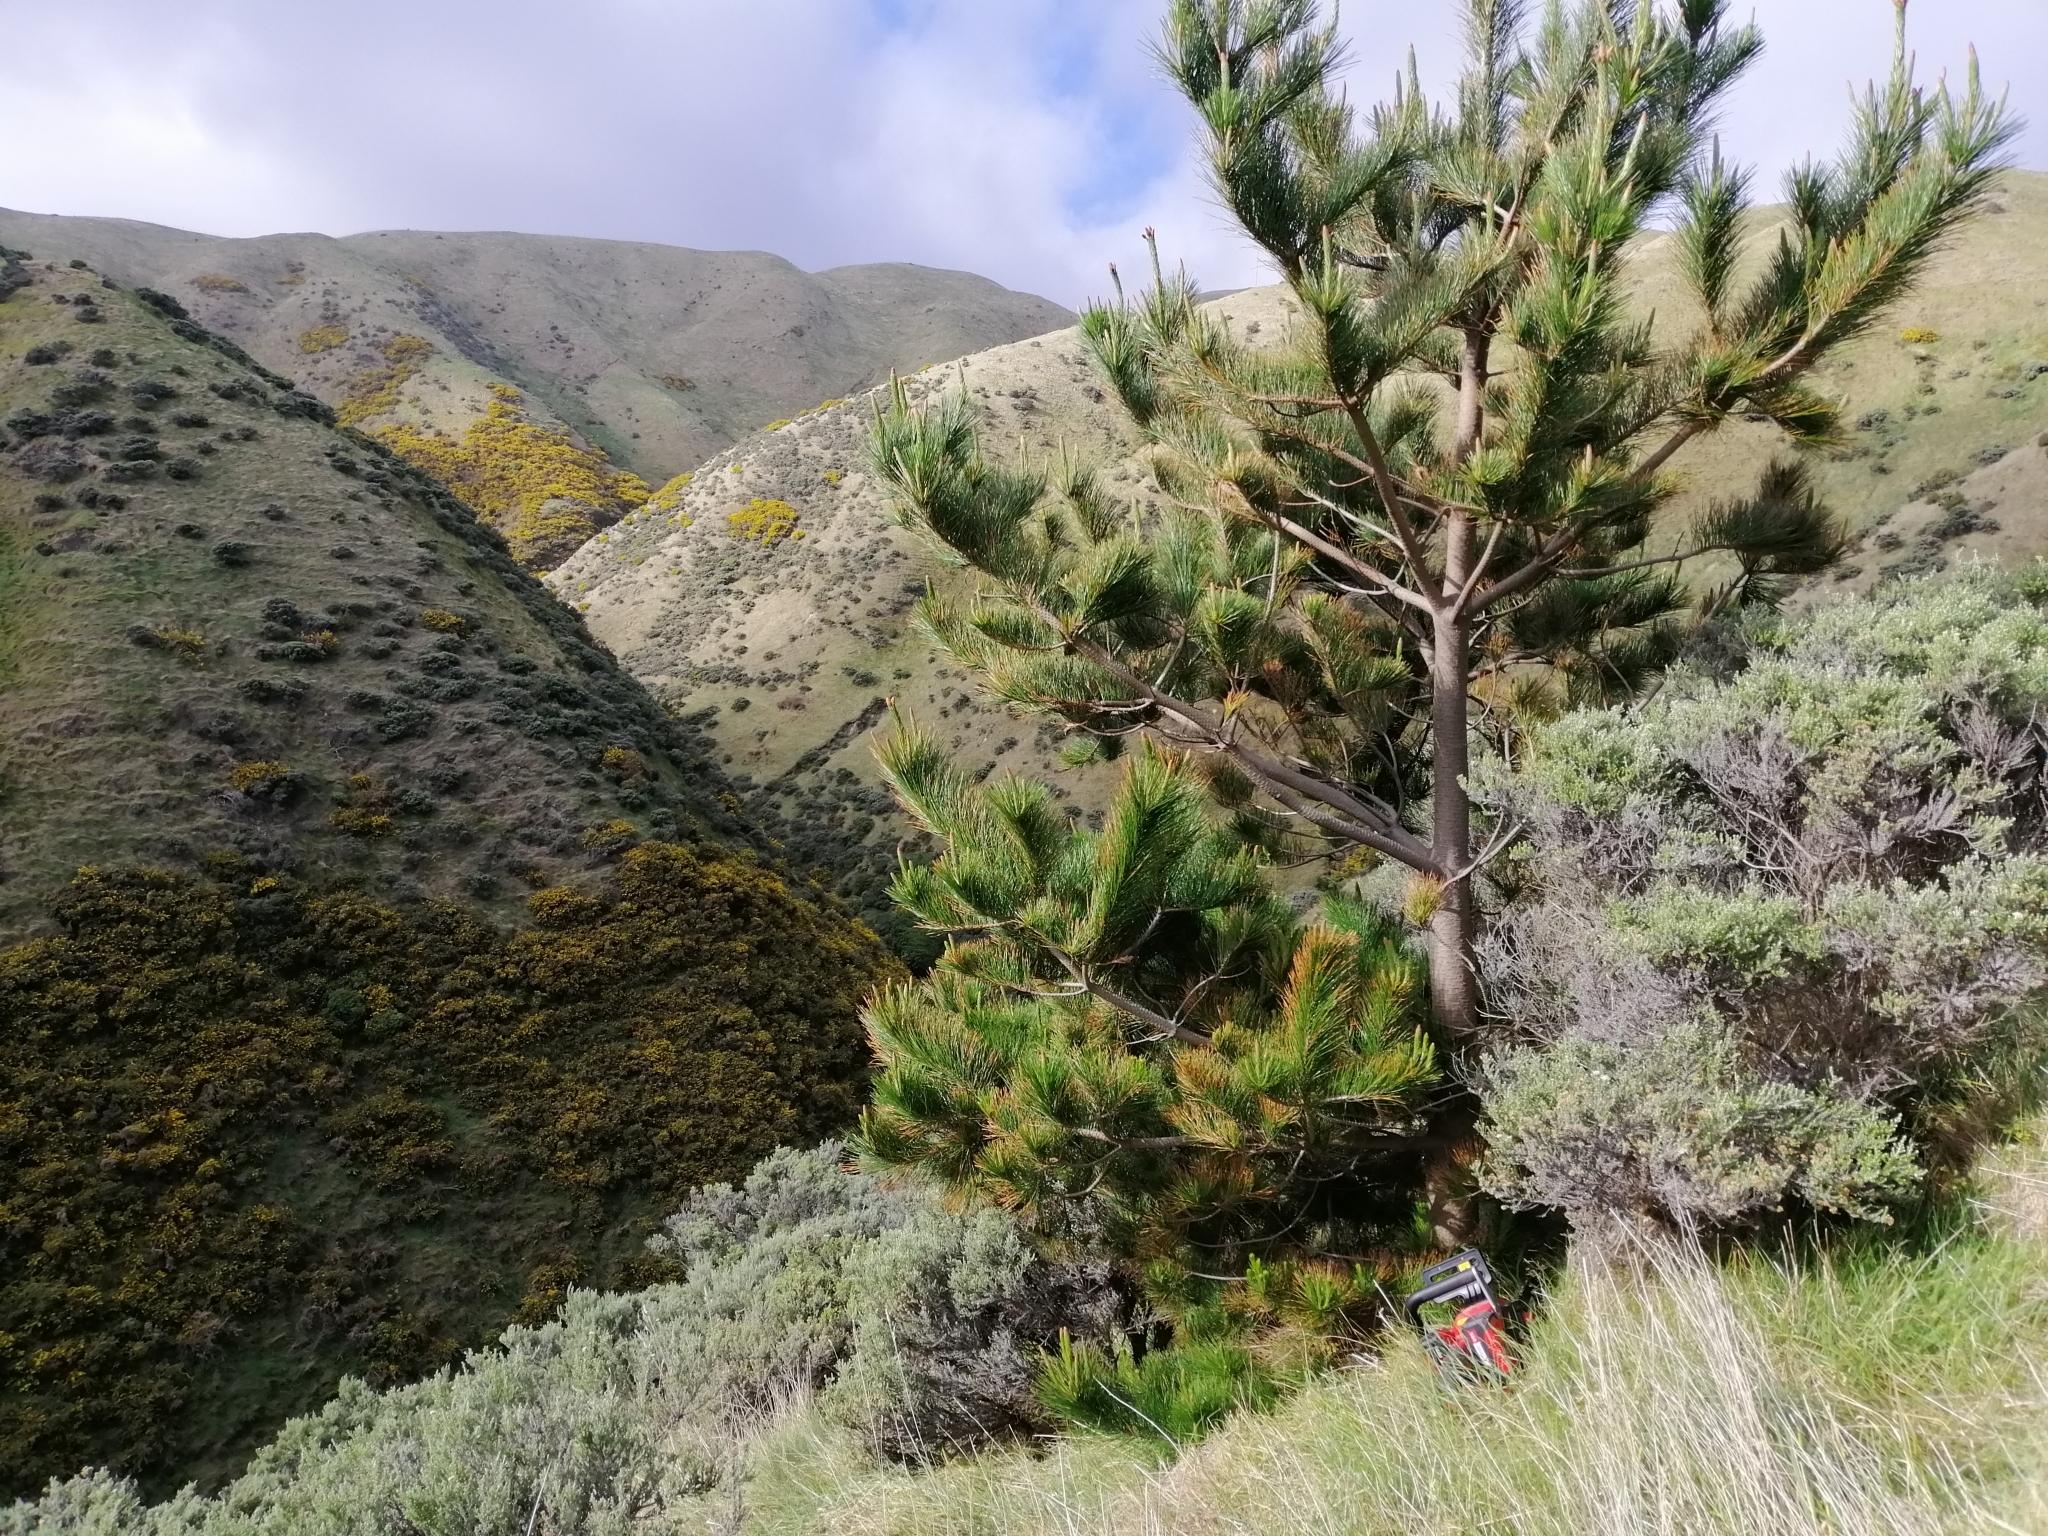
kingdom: Plantae
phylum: Tracheophyta
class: Pinopsida
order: Pinales
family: Pinaceae
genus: Pinus
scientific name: Pinus radiata
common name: Monterey pine
